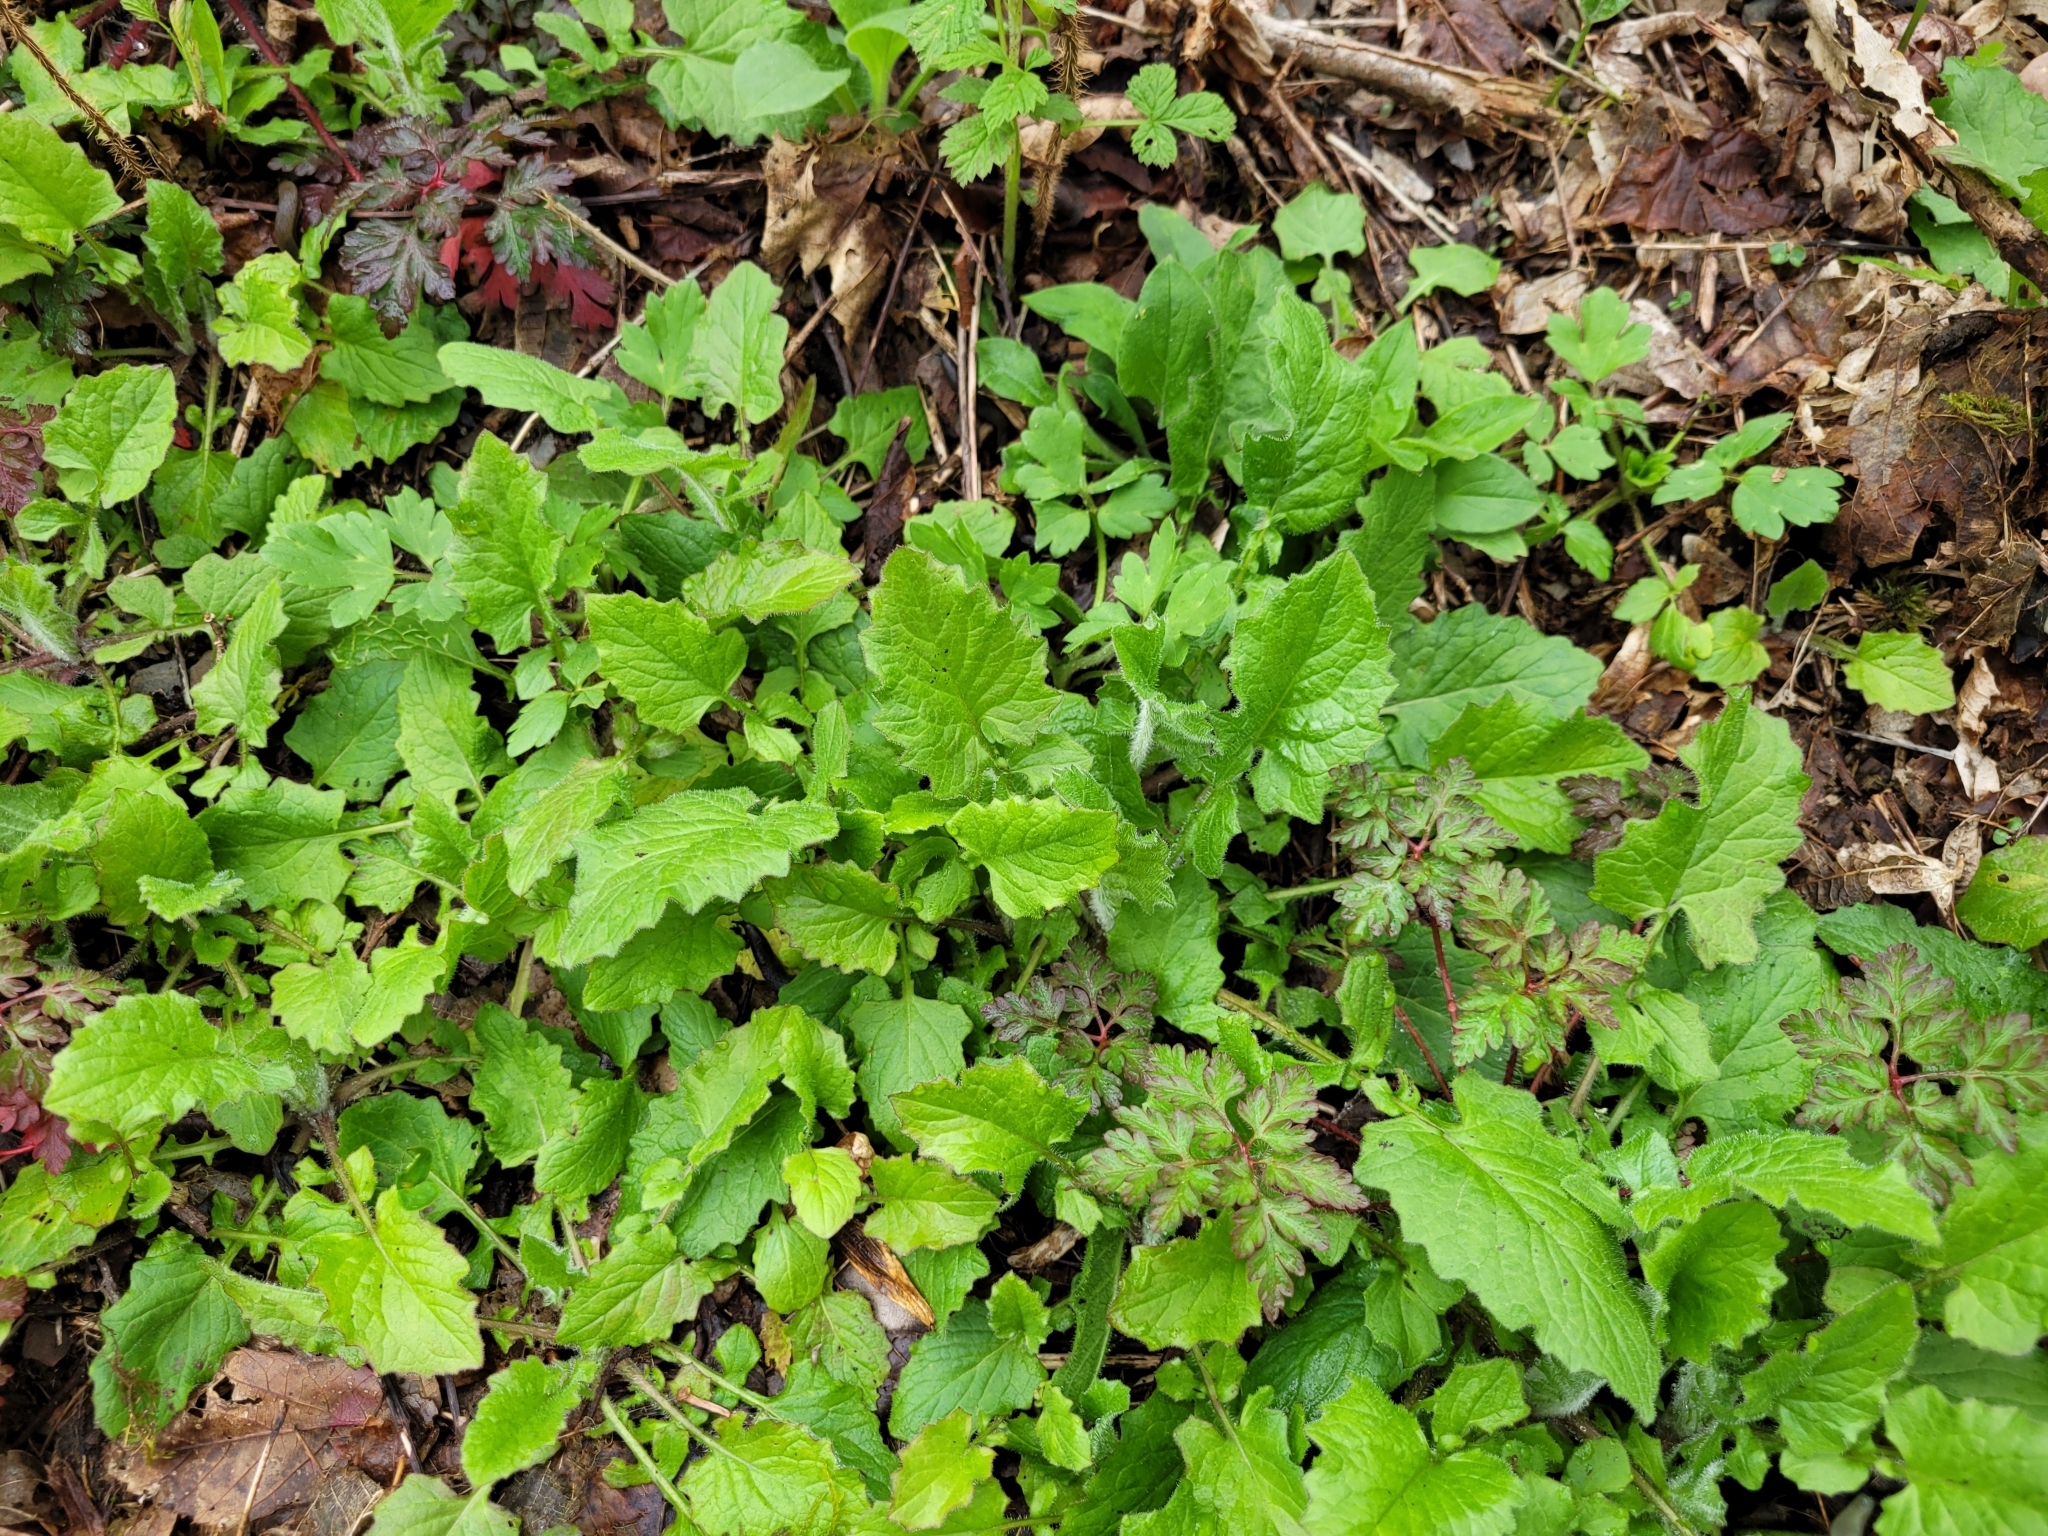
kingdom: Plantae
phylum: Tracheophyta
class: Magnoliopsida
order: Asterales
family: Asteraceae
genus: Lapsana
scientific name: Lapsana communis
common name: Nipplewort
